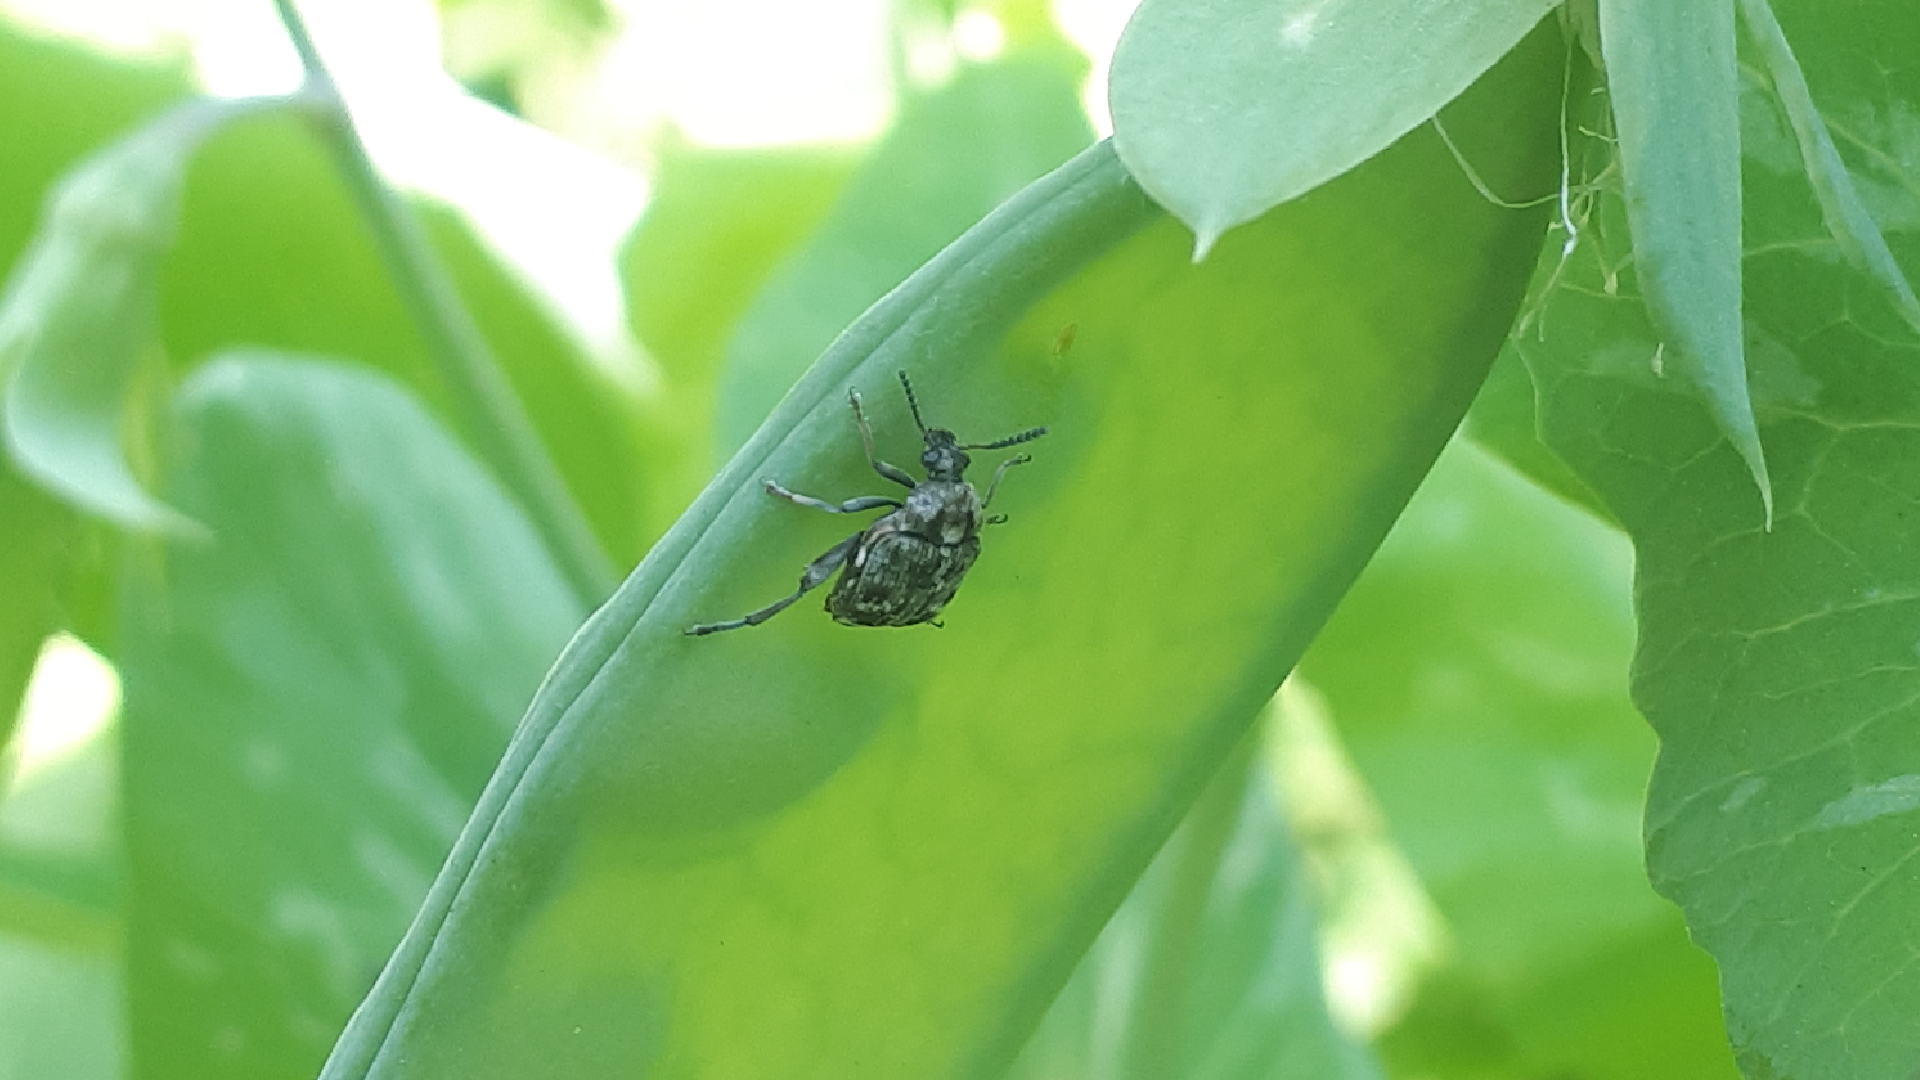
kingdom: Animalia
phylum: Arthropoda
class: Insecta
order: Coleoptera
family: Chrysomelidae
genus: Bruchus
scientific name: Bruchus pisorum
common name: Pea weevil
